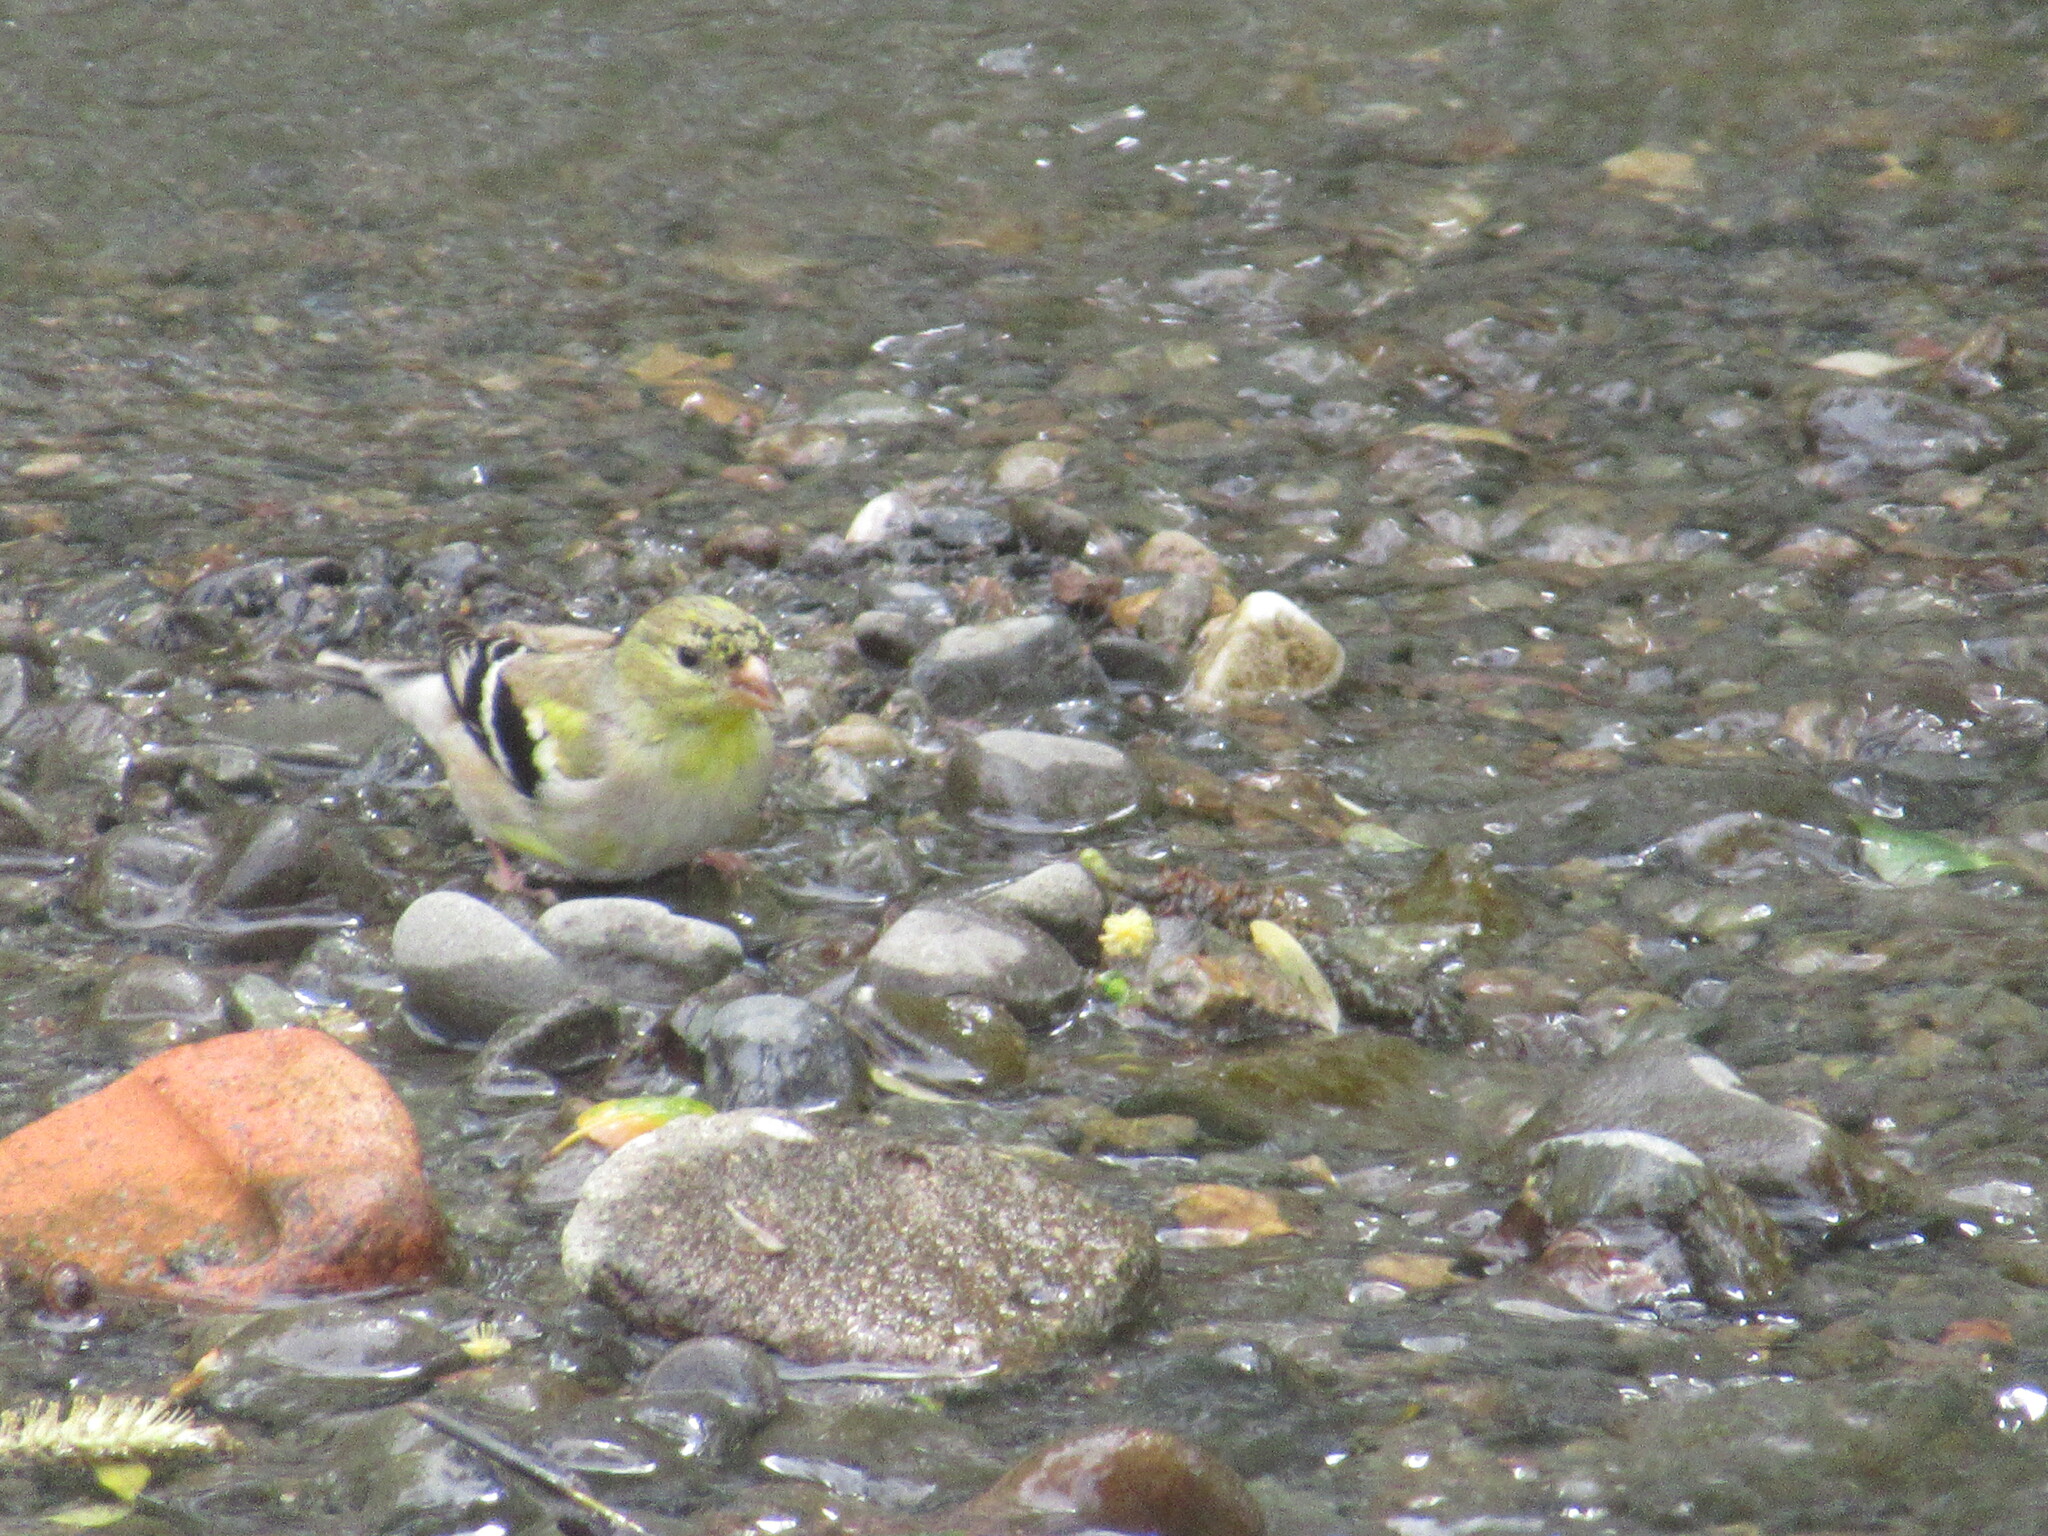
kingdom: Animalia
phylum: Chordata
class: Aves
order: Passeriformes
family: Fringillidae
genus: Spinus
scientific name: Spinus tristis
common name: American goldfinch
